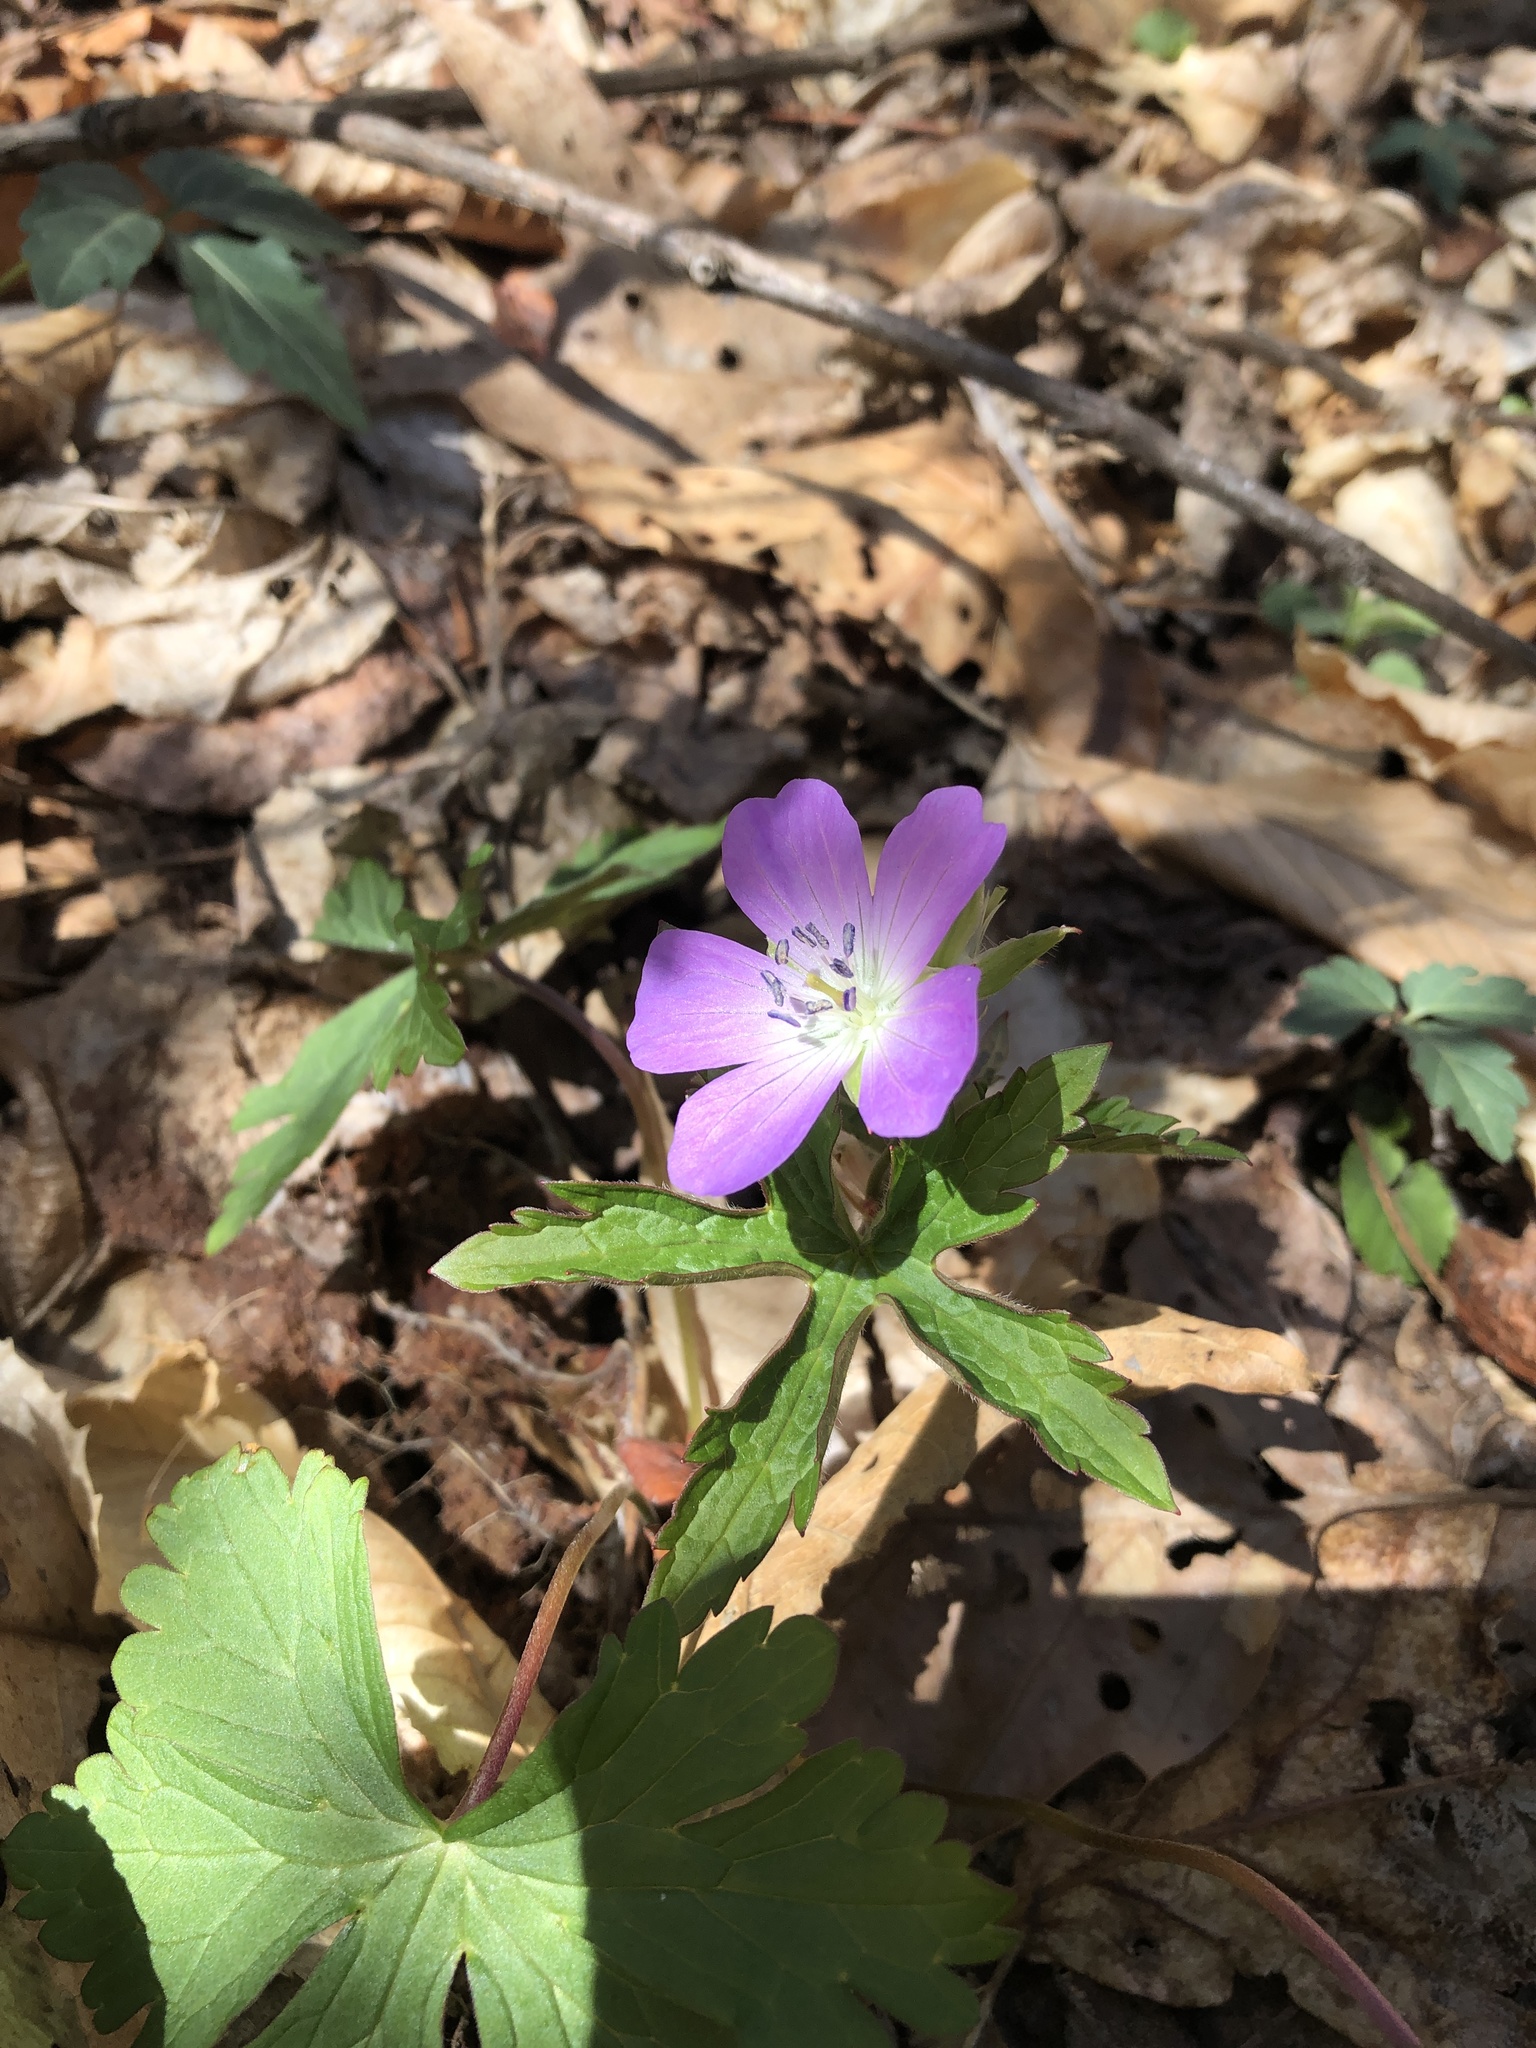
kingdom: Plantae
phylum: Tracheophyta
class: Magnoliopsida
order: Geraniales
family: Geraniaceae
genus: Geranium
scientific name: Geranium maculatum
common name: Spotted geranium
